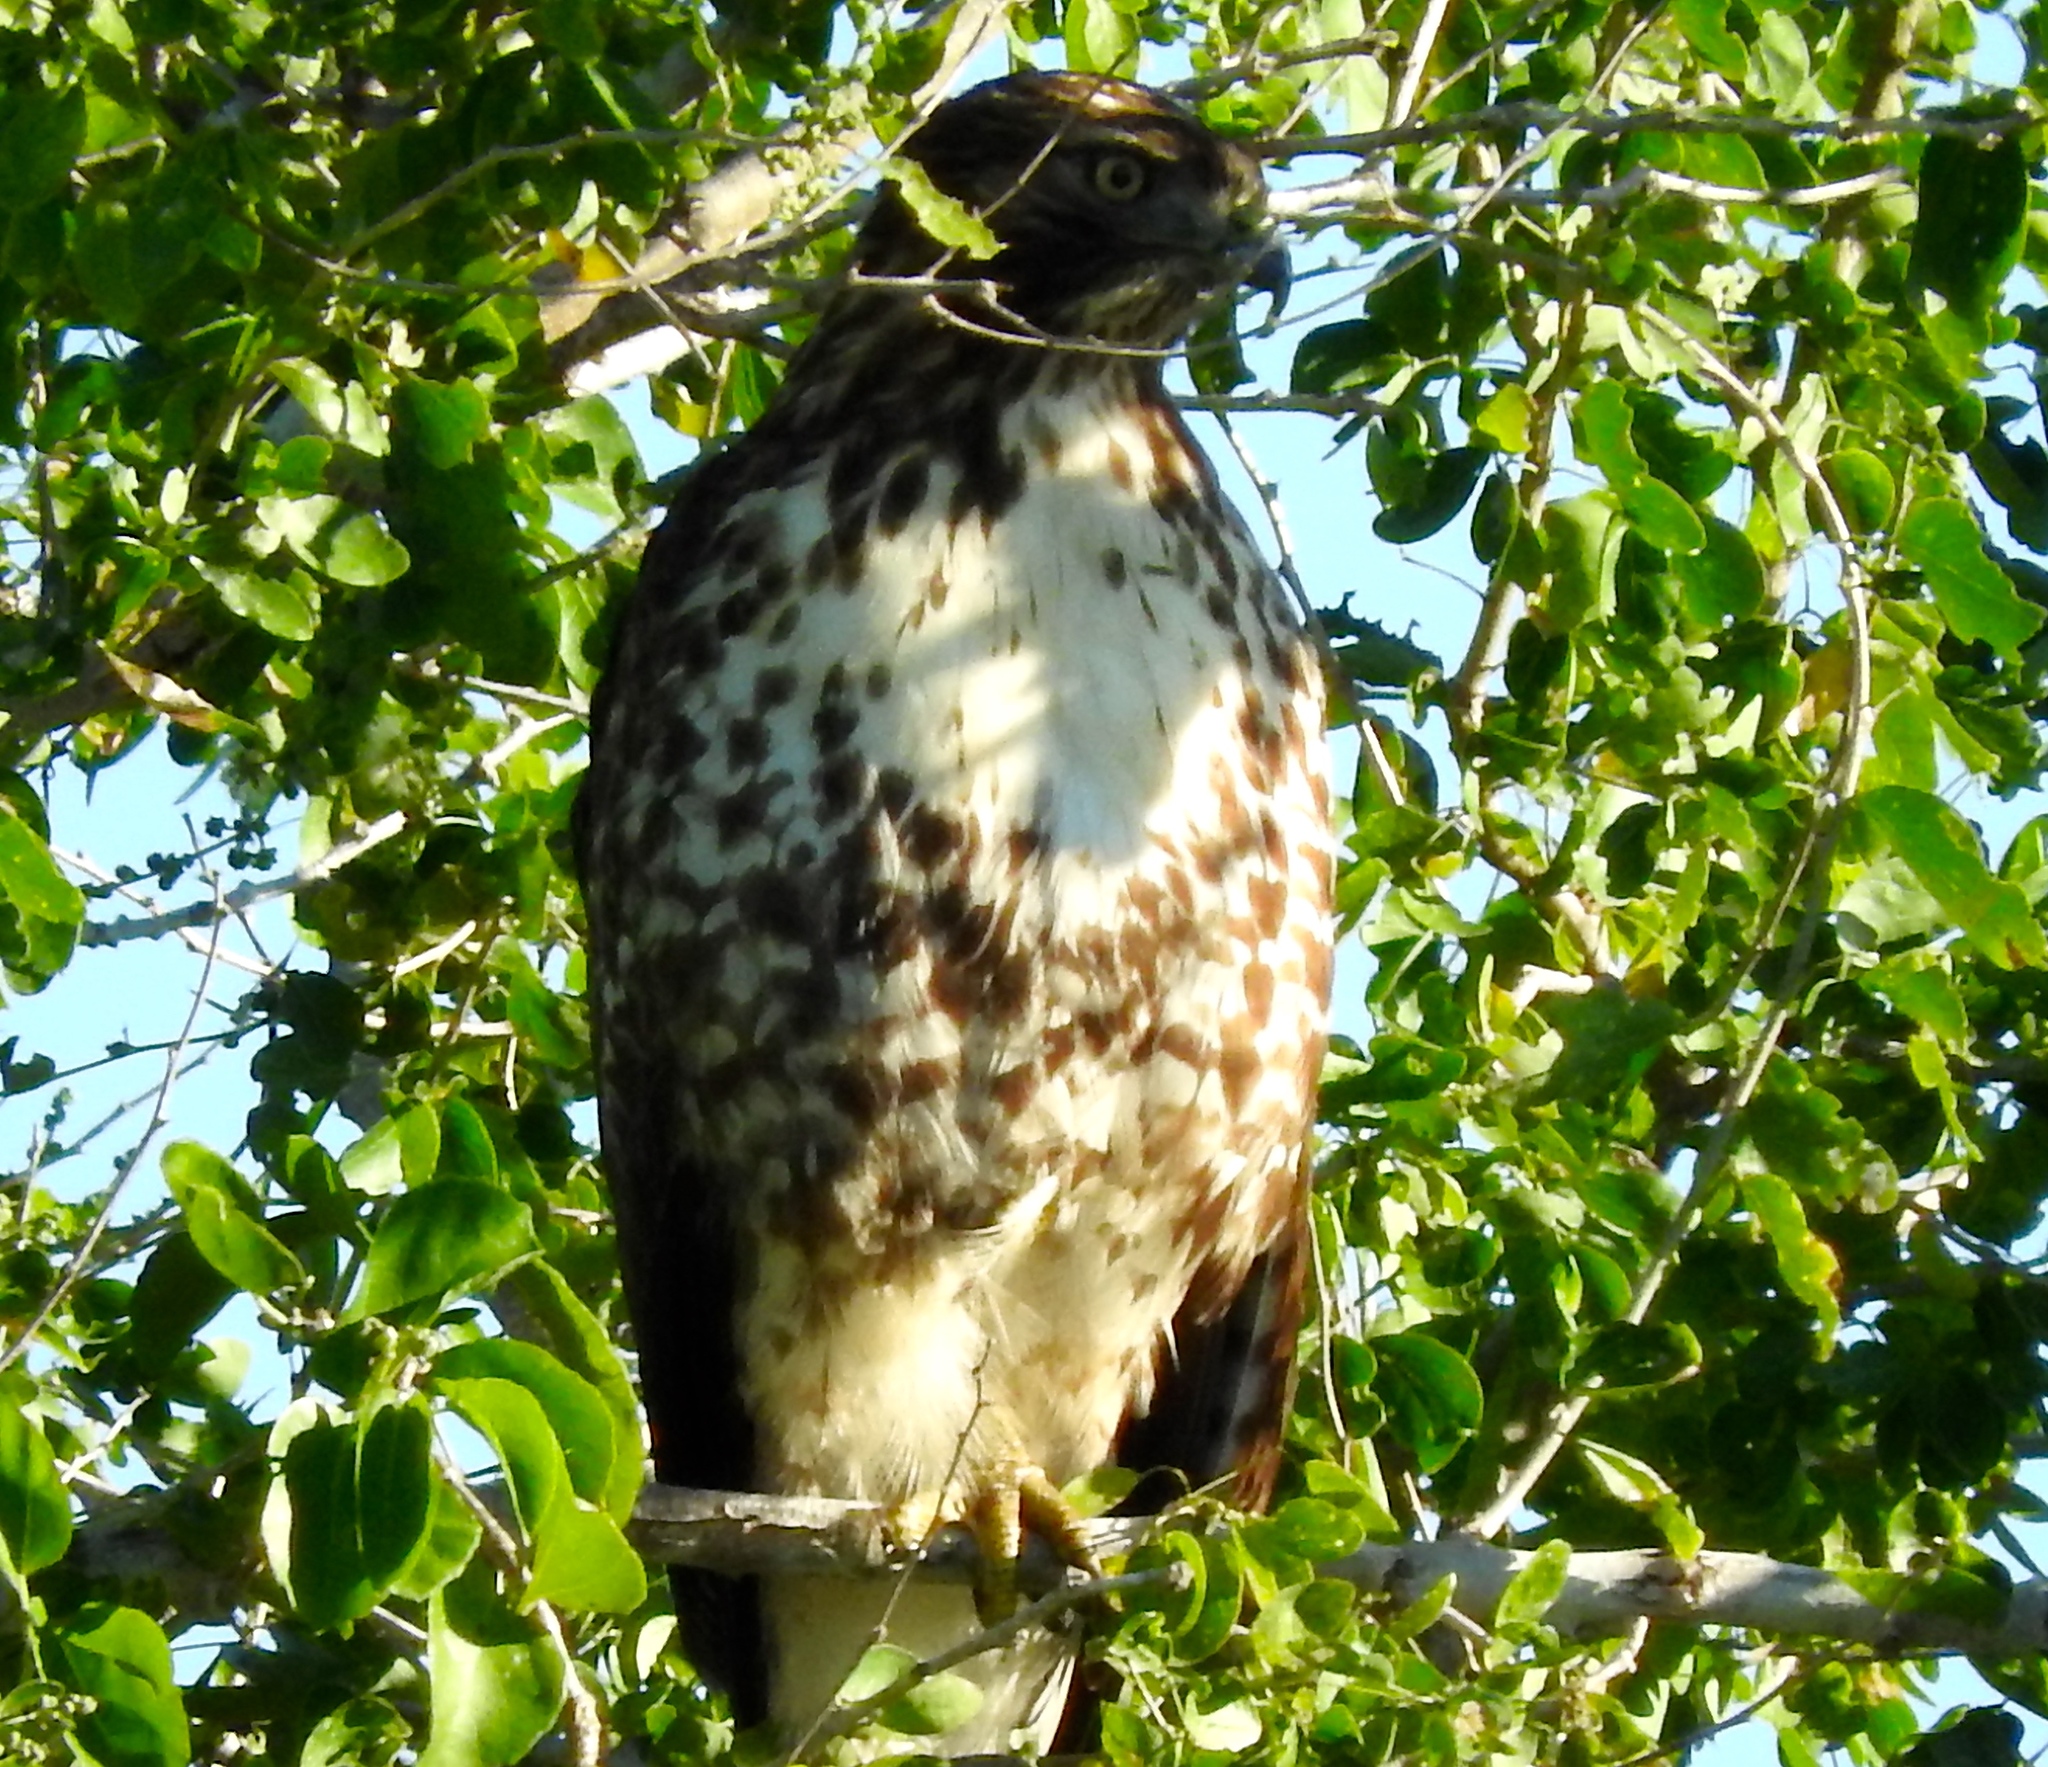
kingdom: Animalia
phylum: Chordata
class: Aves
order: Accipitriformes
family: Accipitridae
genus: Buteo
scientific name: Buteo jamaicensis
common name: Red-tailed hawk
